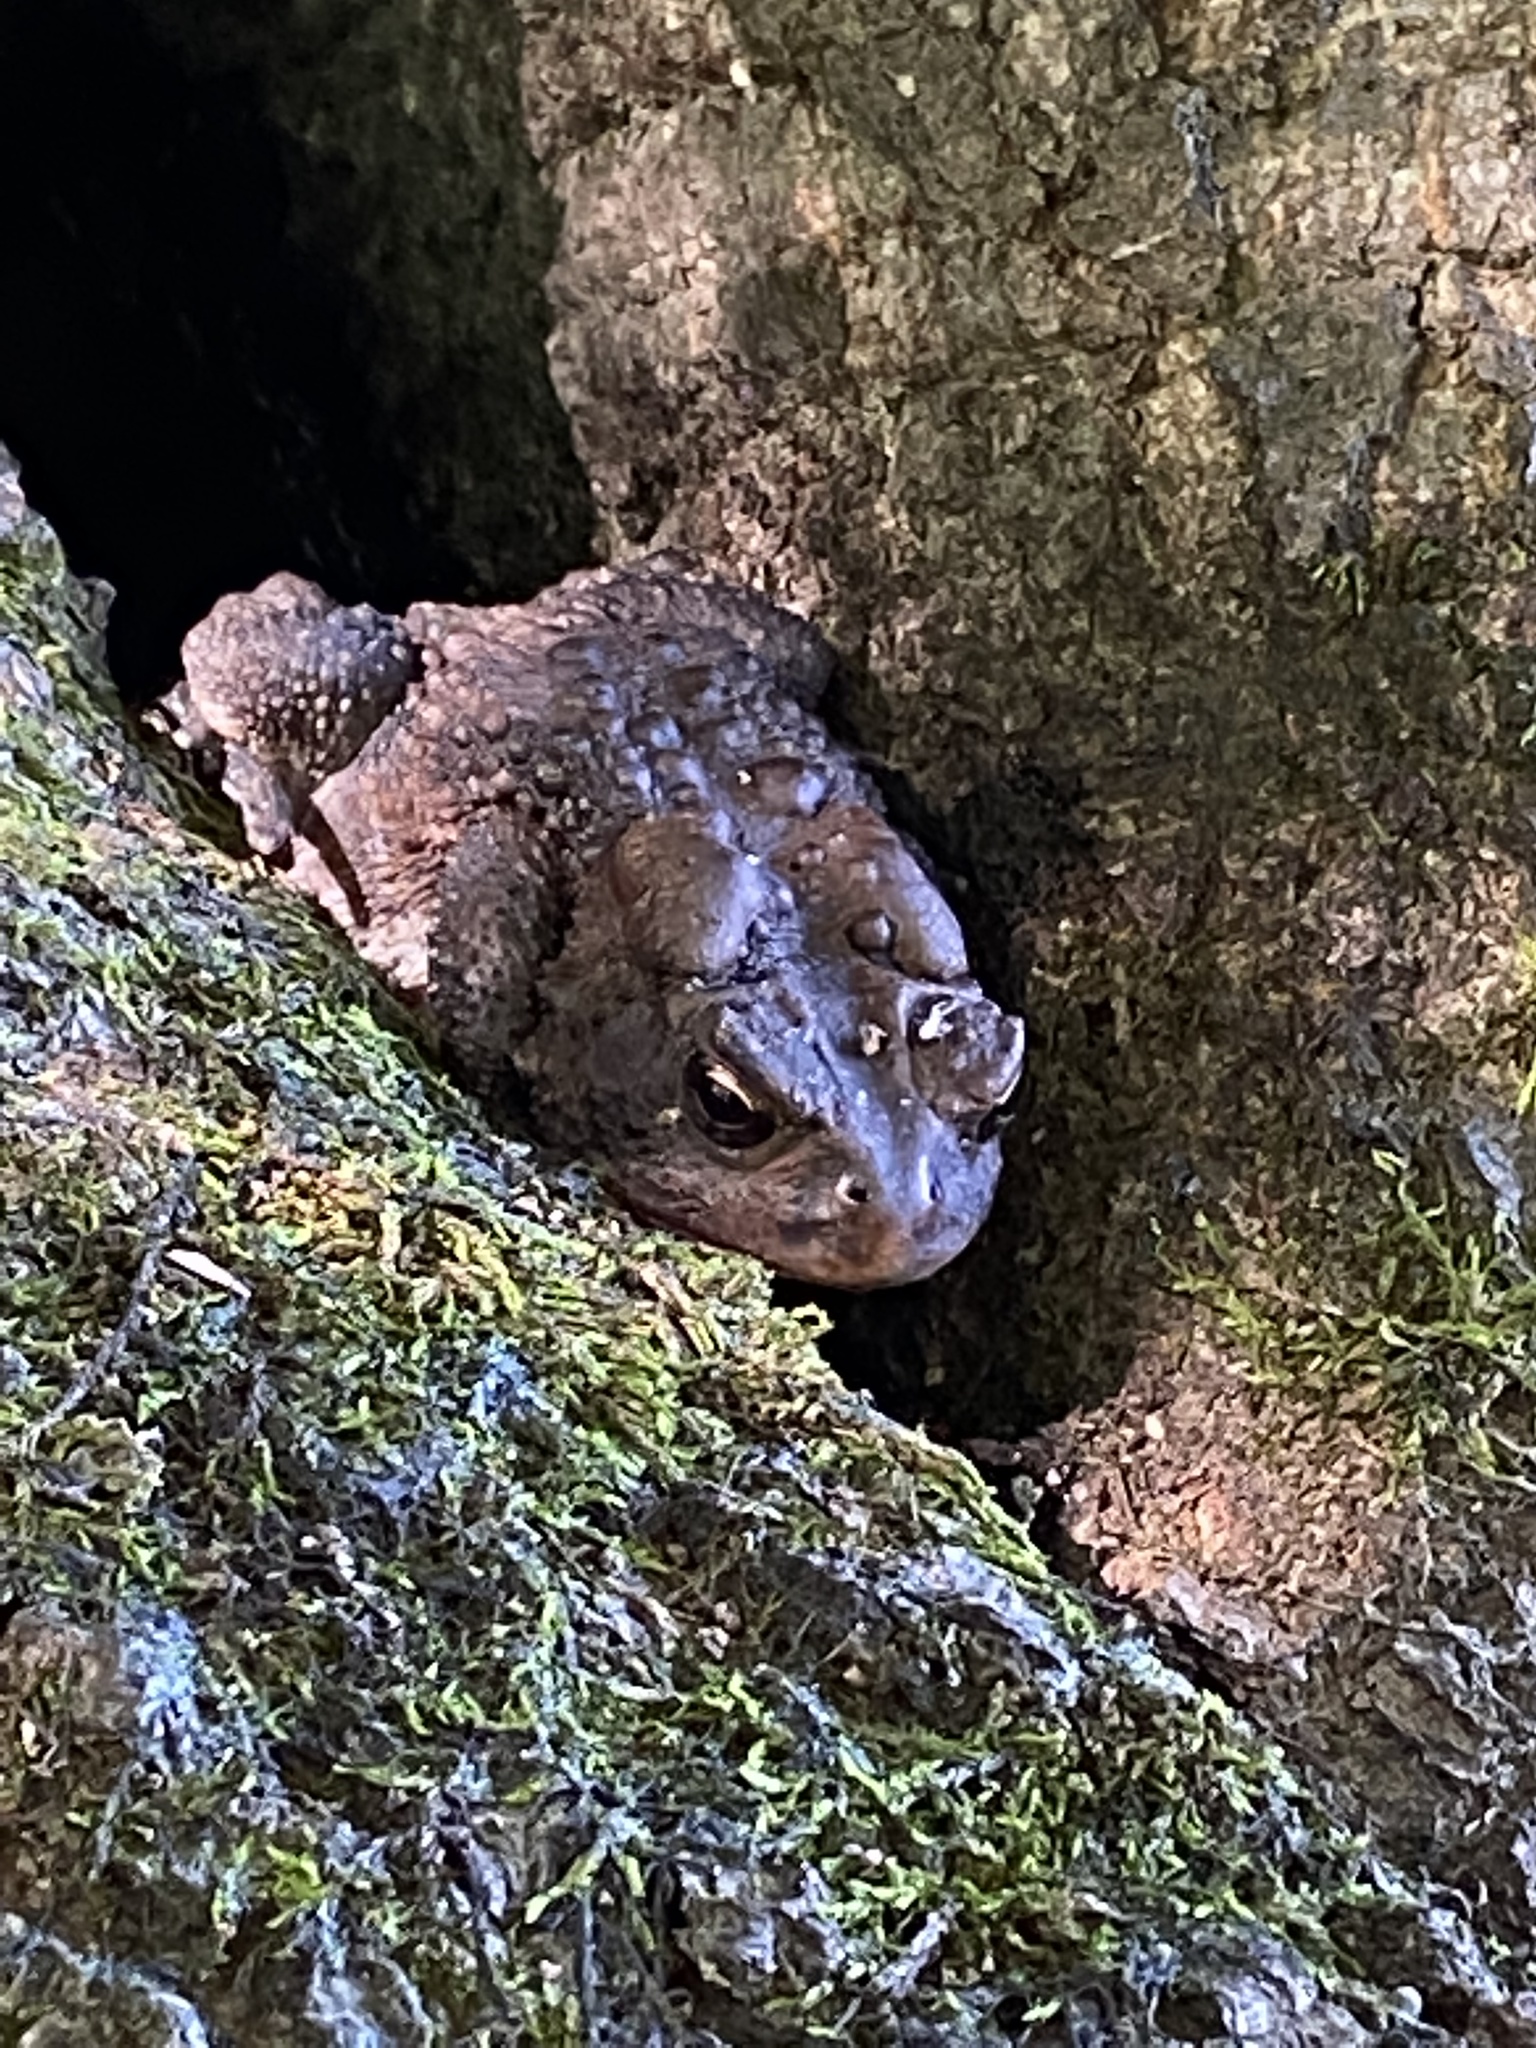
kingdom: Animalia
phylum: Chordata
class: Amphibia
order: Anura
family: Bufonidae
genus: Anaxyrus
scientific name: Anaxyrus americanus
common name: American toad
